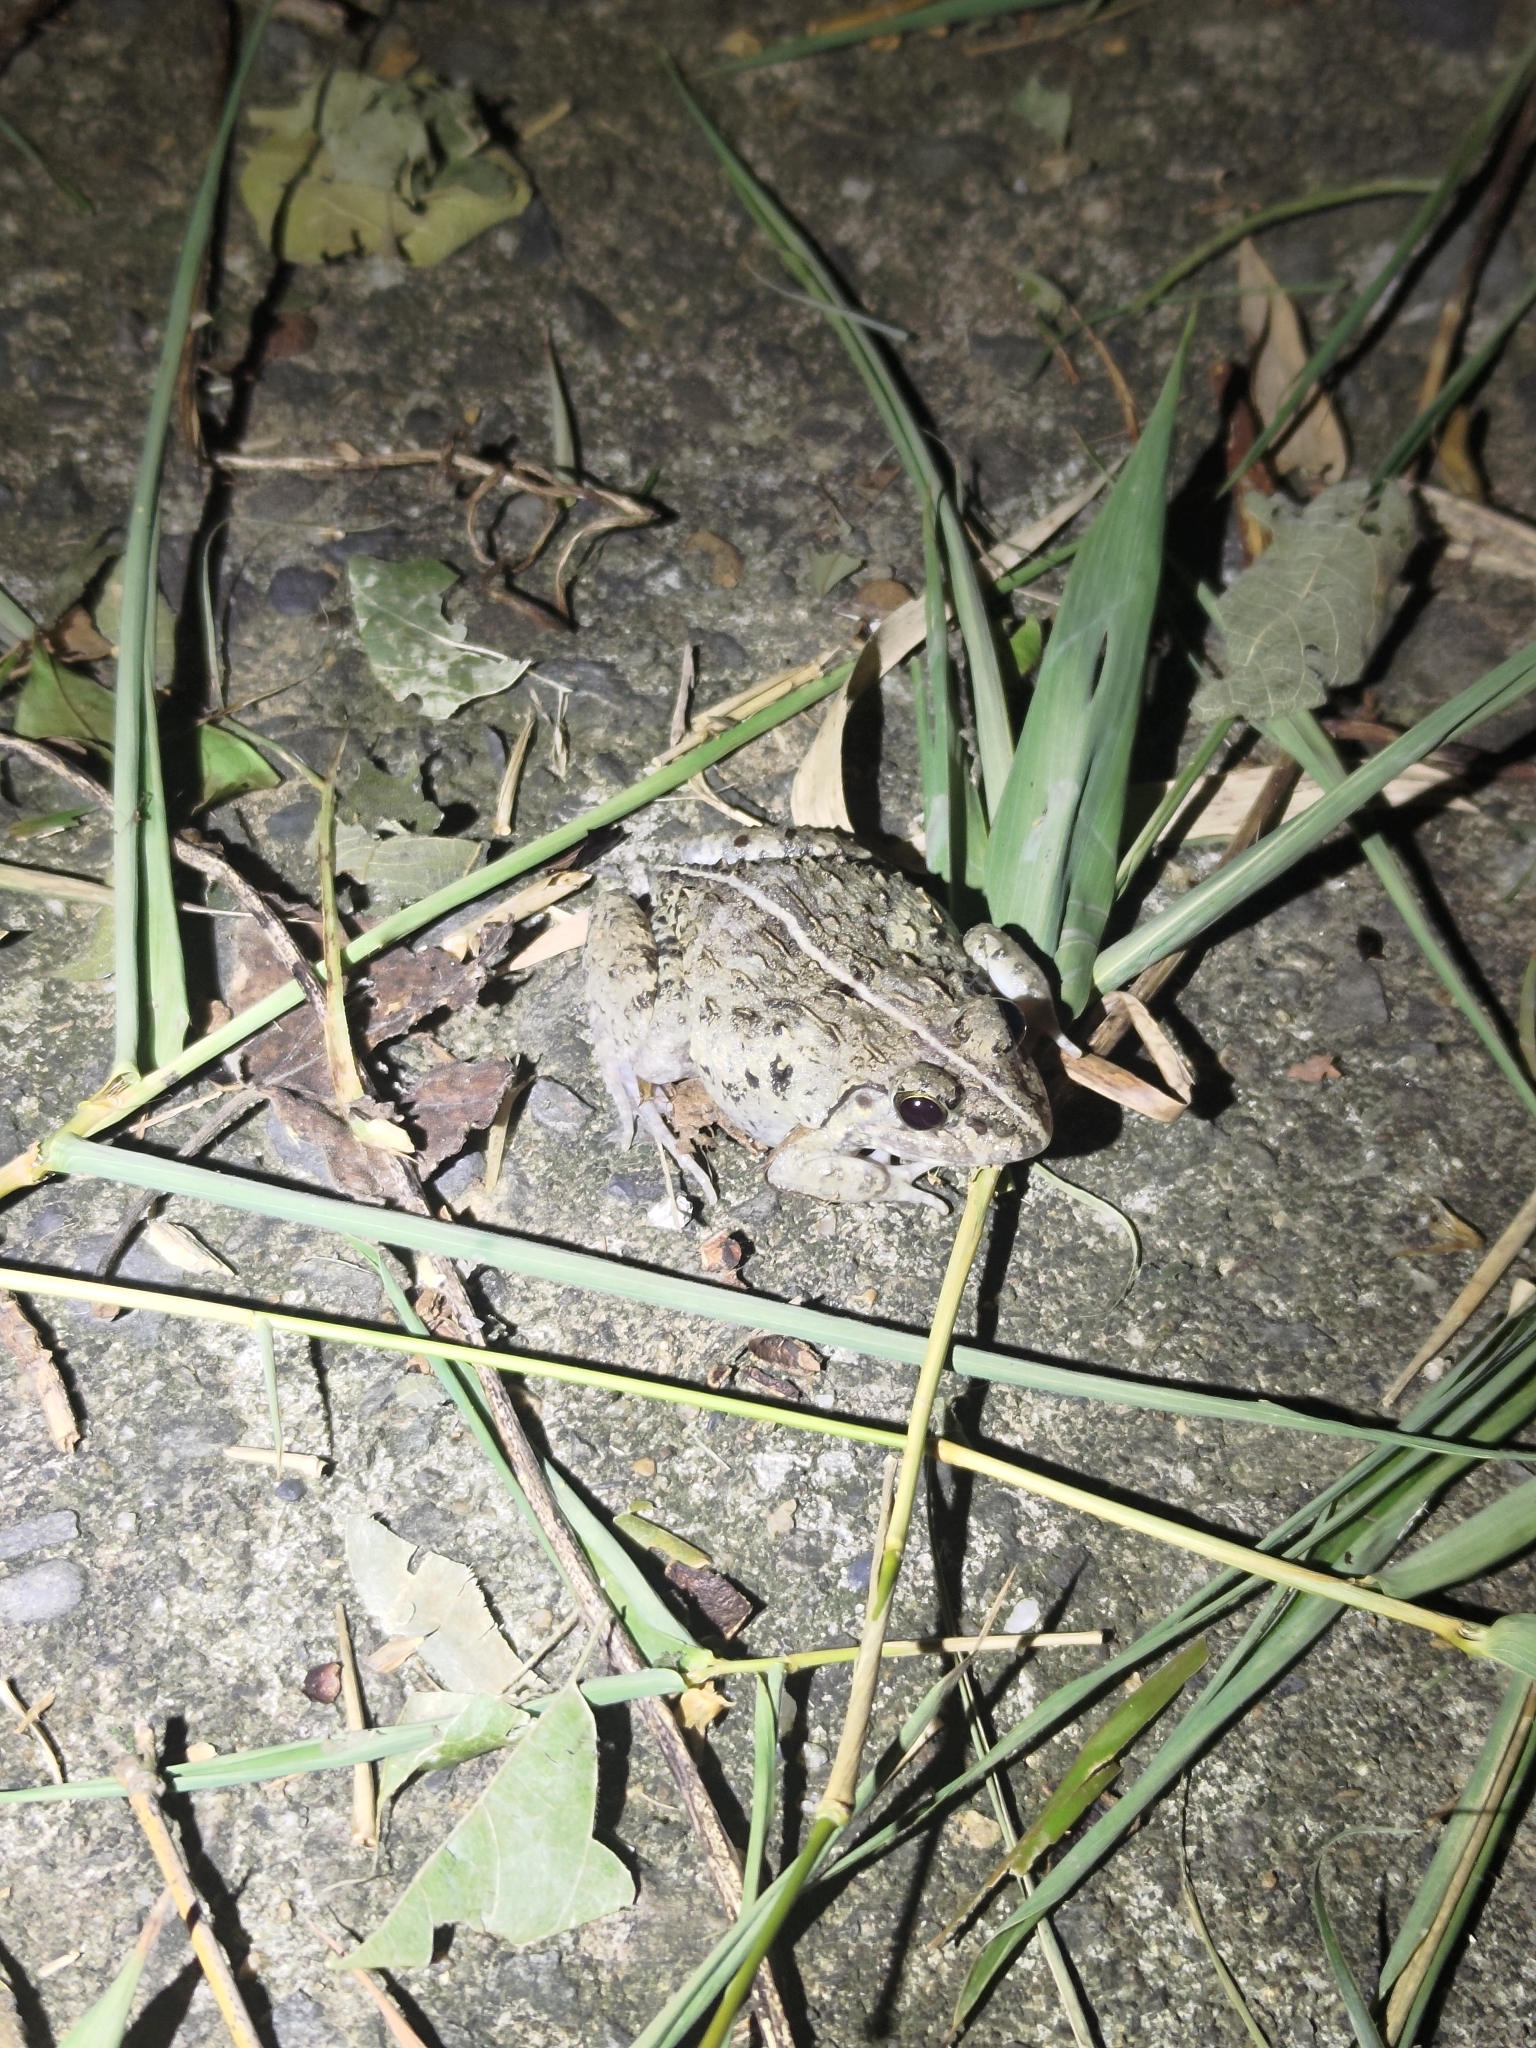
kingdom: Animalia
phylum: Chordata
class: Amphibia
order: Anura
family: Dicroglossidae
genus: Fejervarya
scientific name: Fejervarya limnocharis
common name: Asian grass frog/common pond frog/field frog/grass frog/indian rice frog
